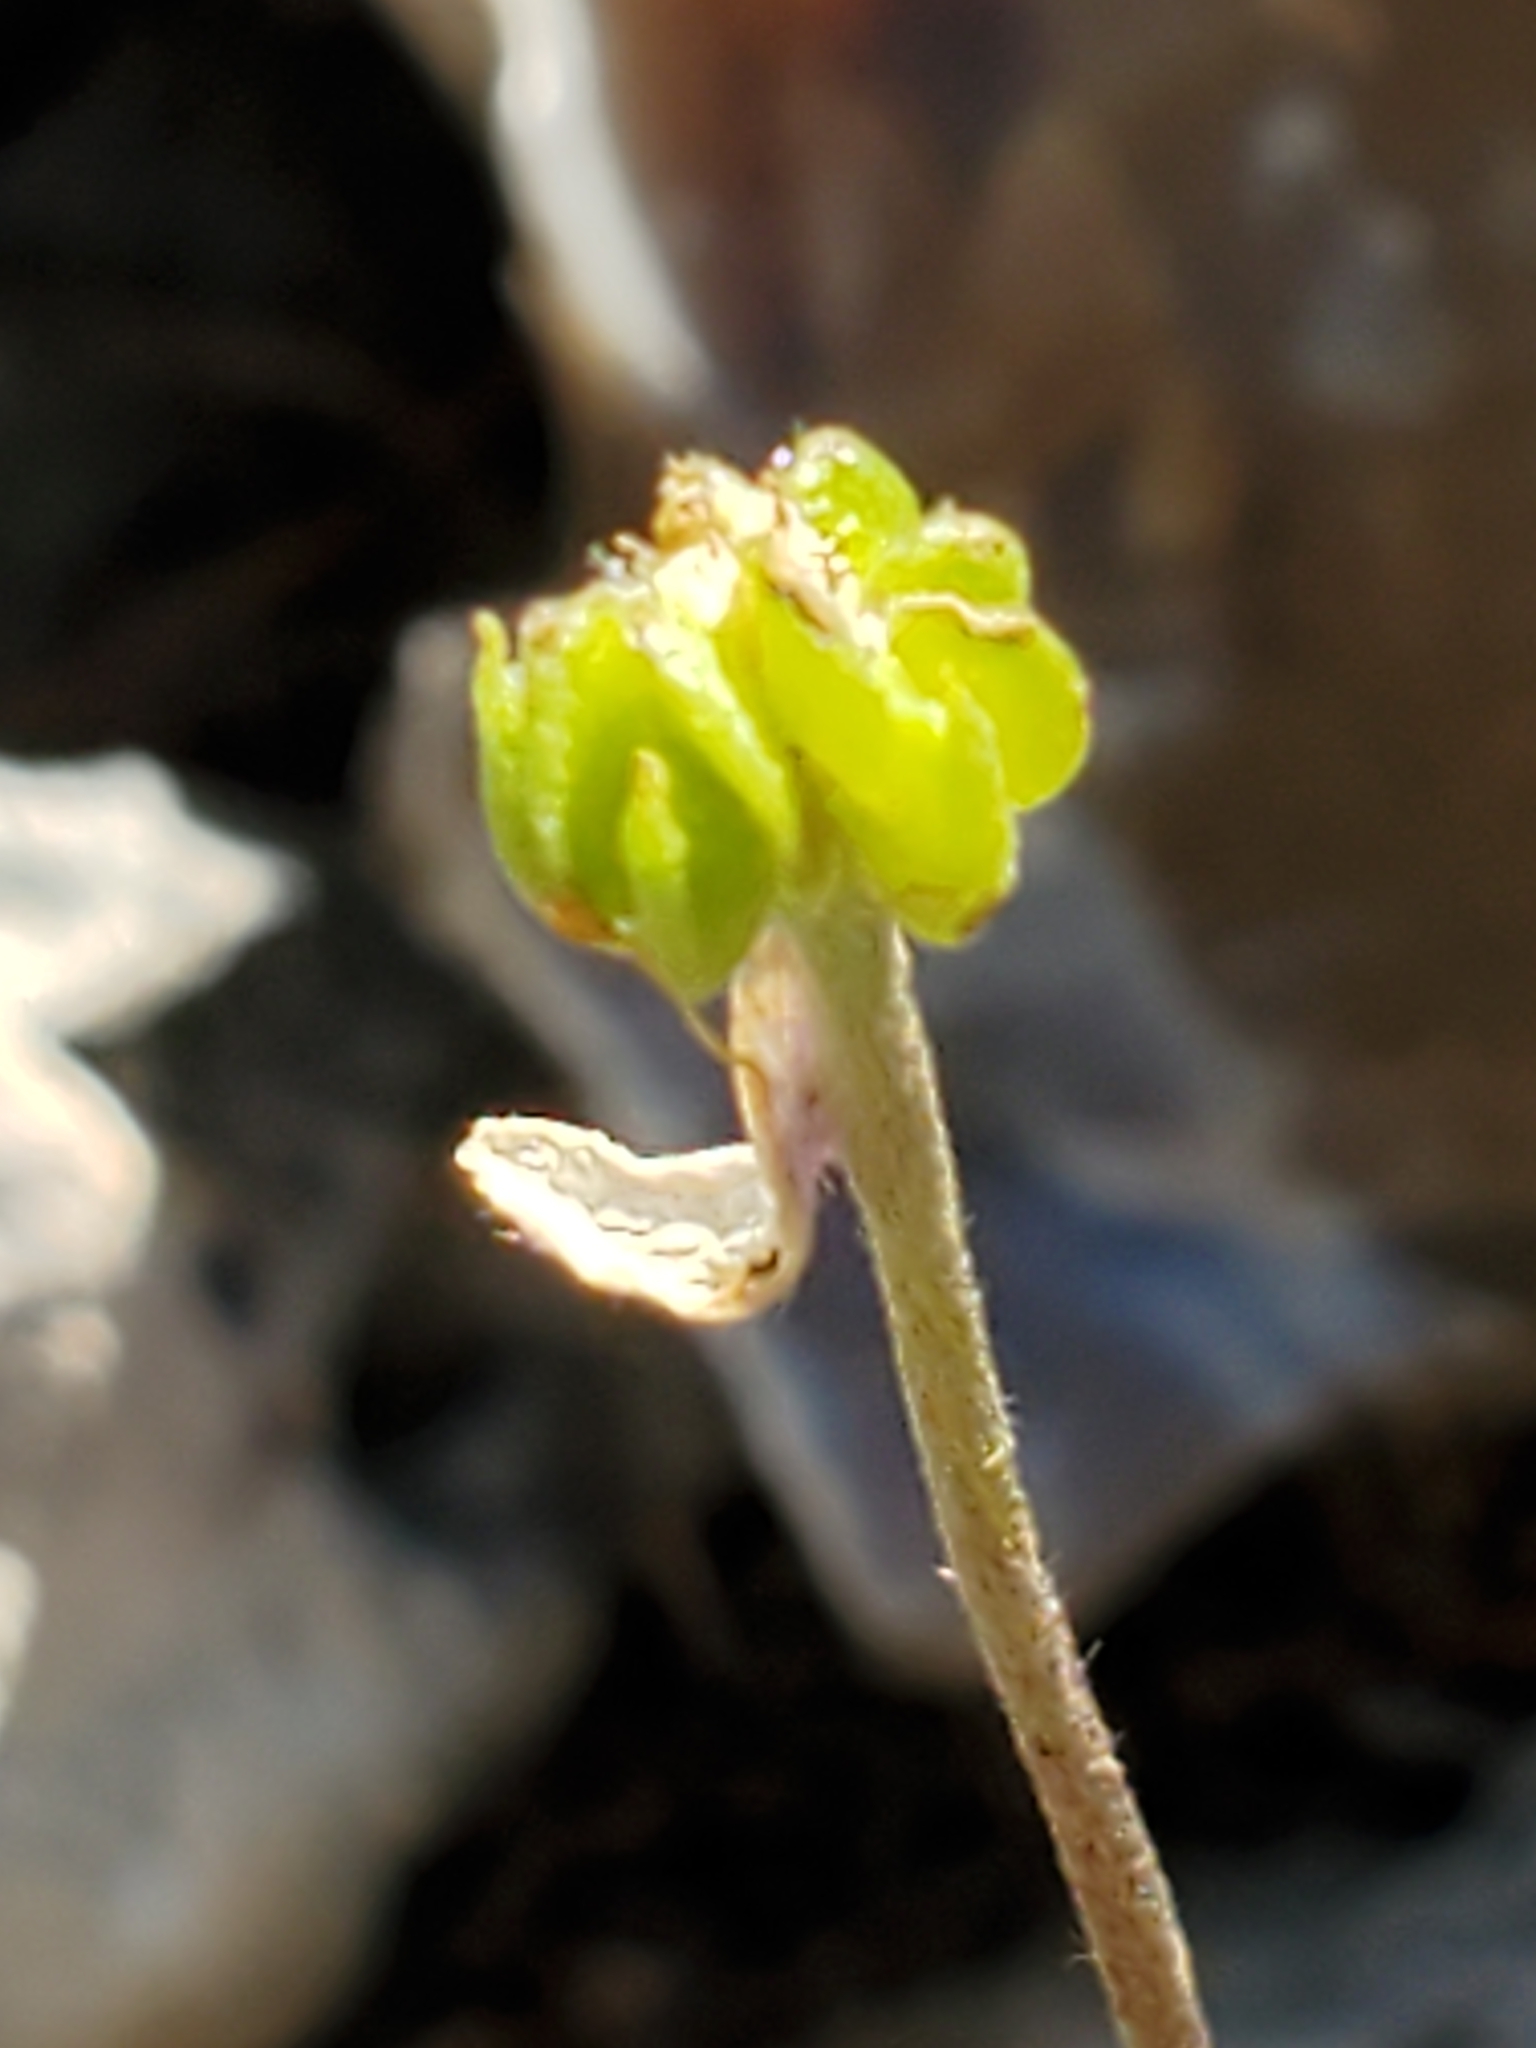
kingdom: Plantae
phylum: Tracheophyta
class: Magnoliopsida
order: Ranunculales
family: Ranunculaceae
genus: Anemone
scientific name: Anemone edwardsiana
